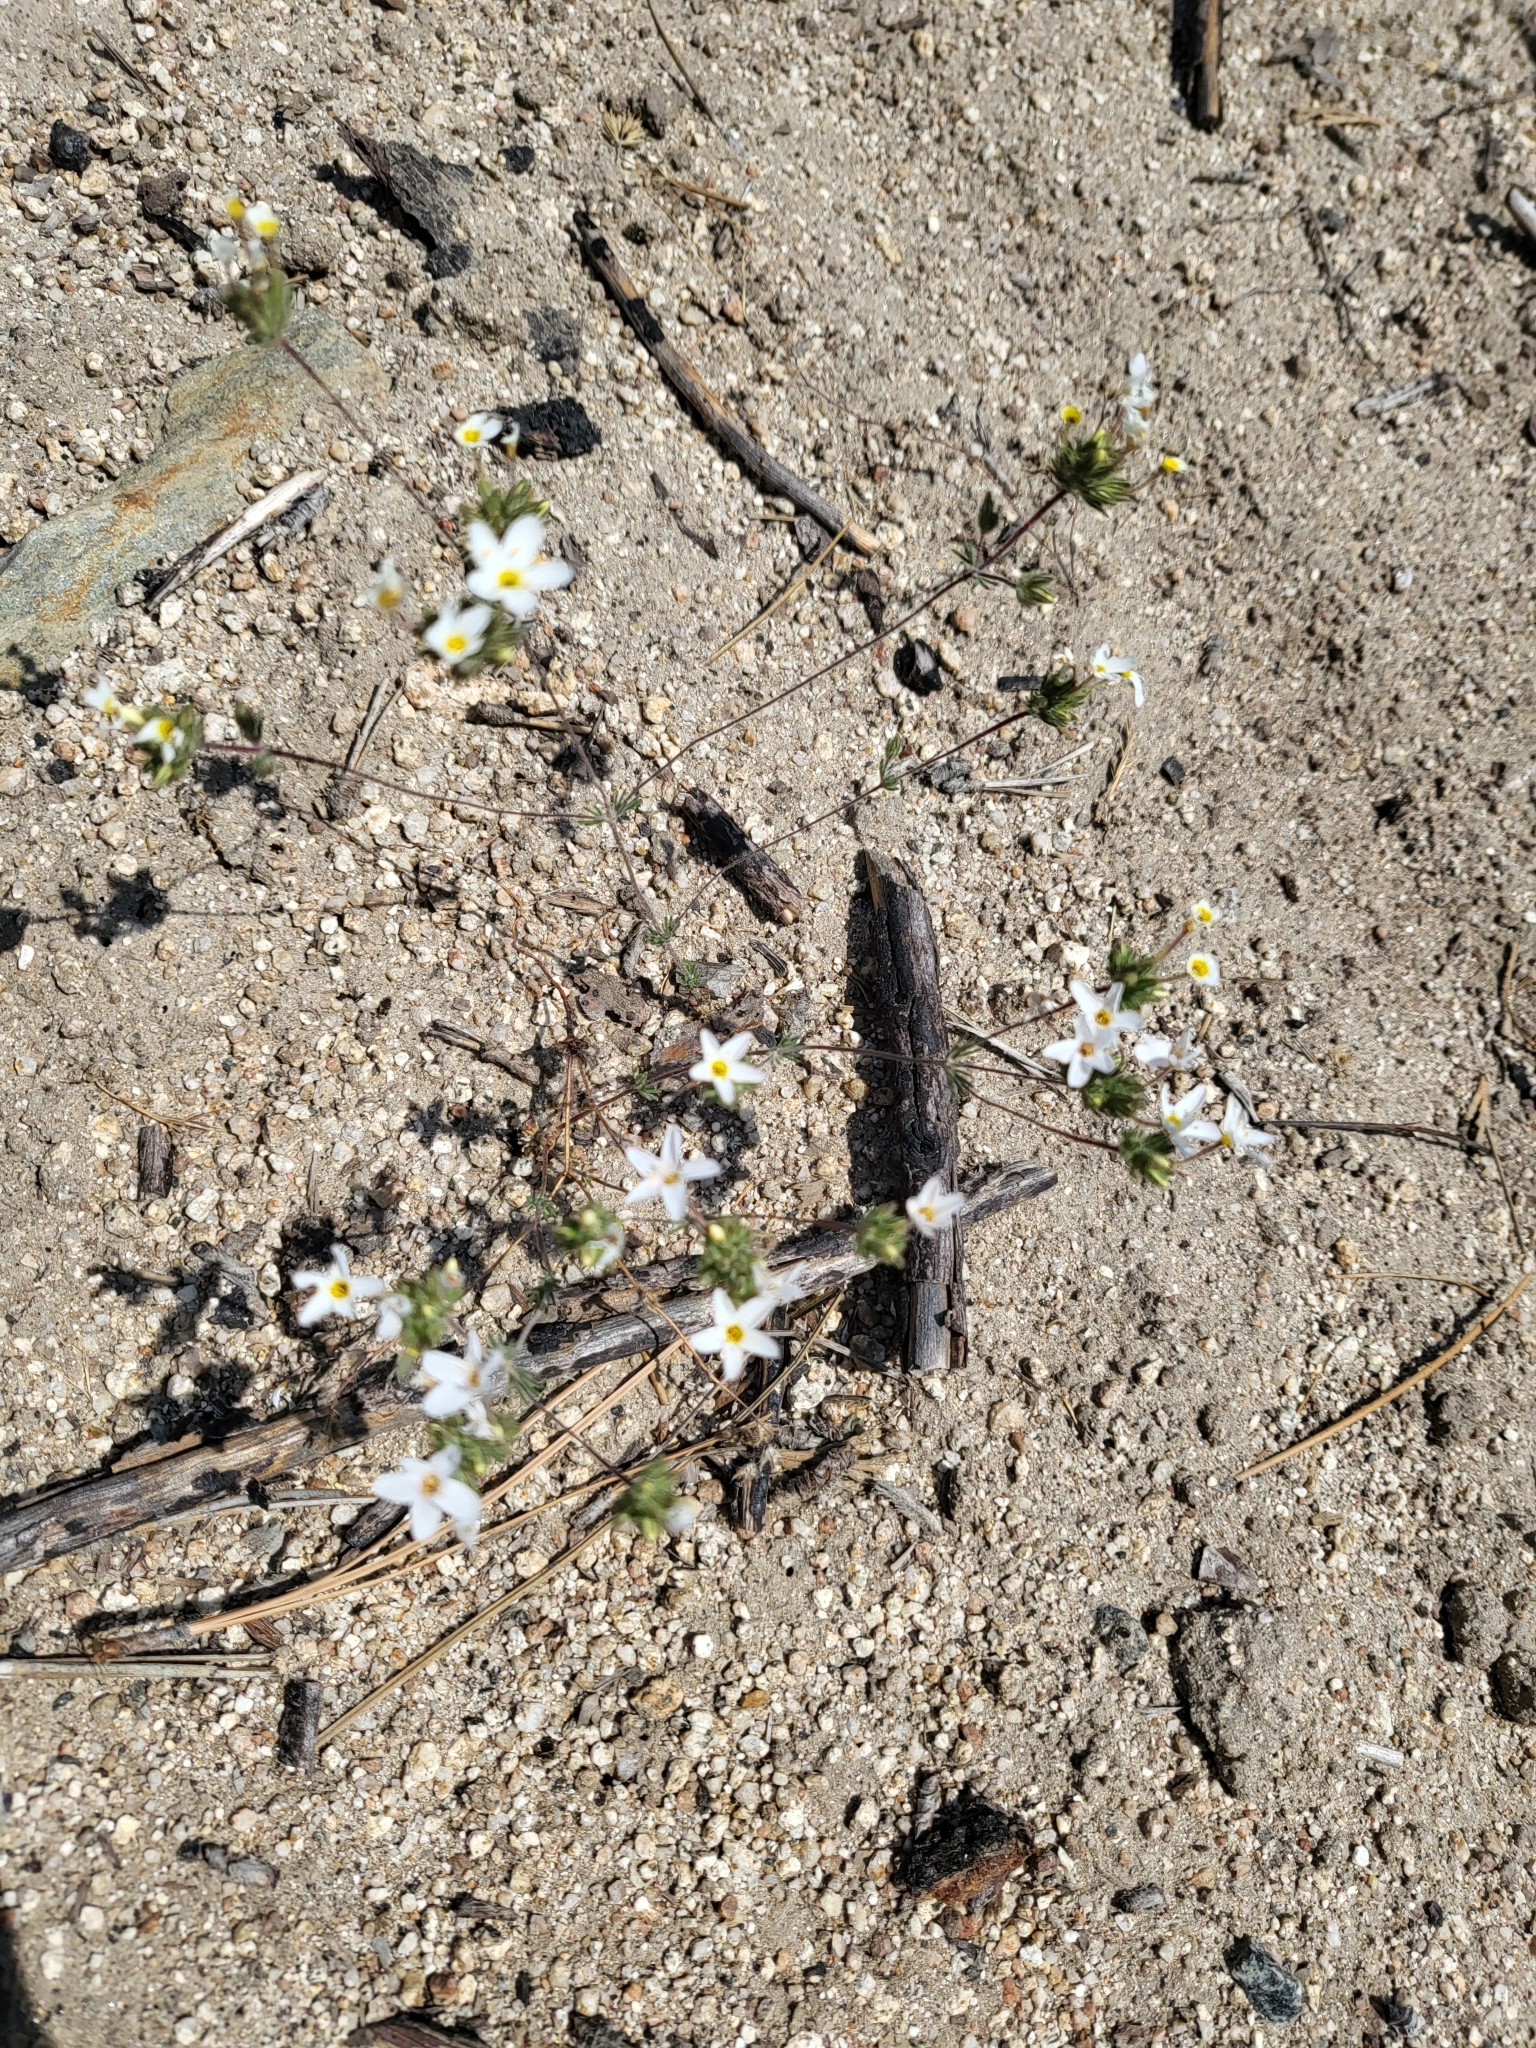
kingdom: Plantae
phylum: Tracheophyta
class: Magnoliopsida
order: Ericales
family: Polemoniaceae
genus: Leptosiphon
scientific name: Leptosiphon nudatus
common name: Tehachapi linanthus
